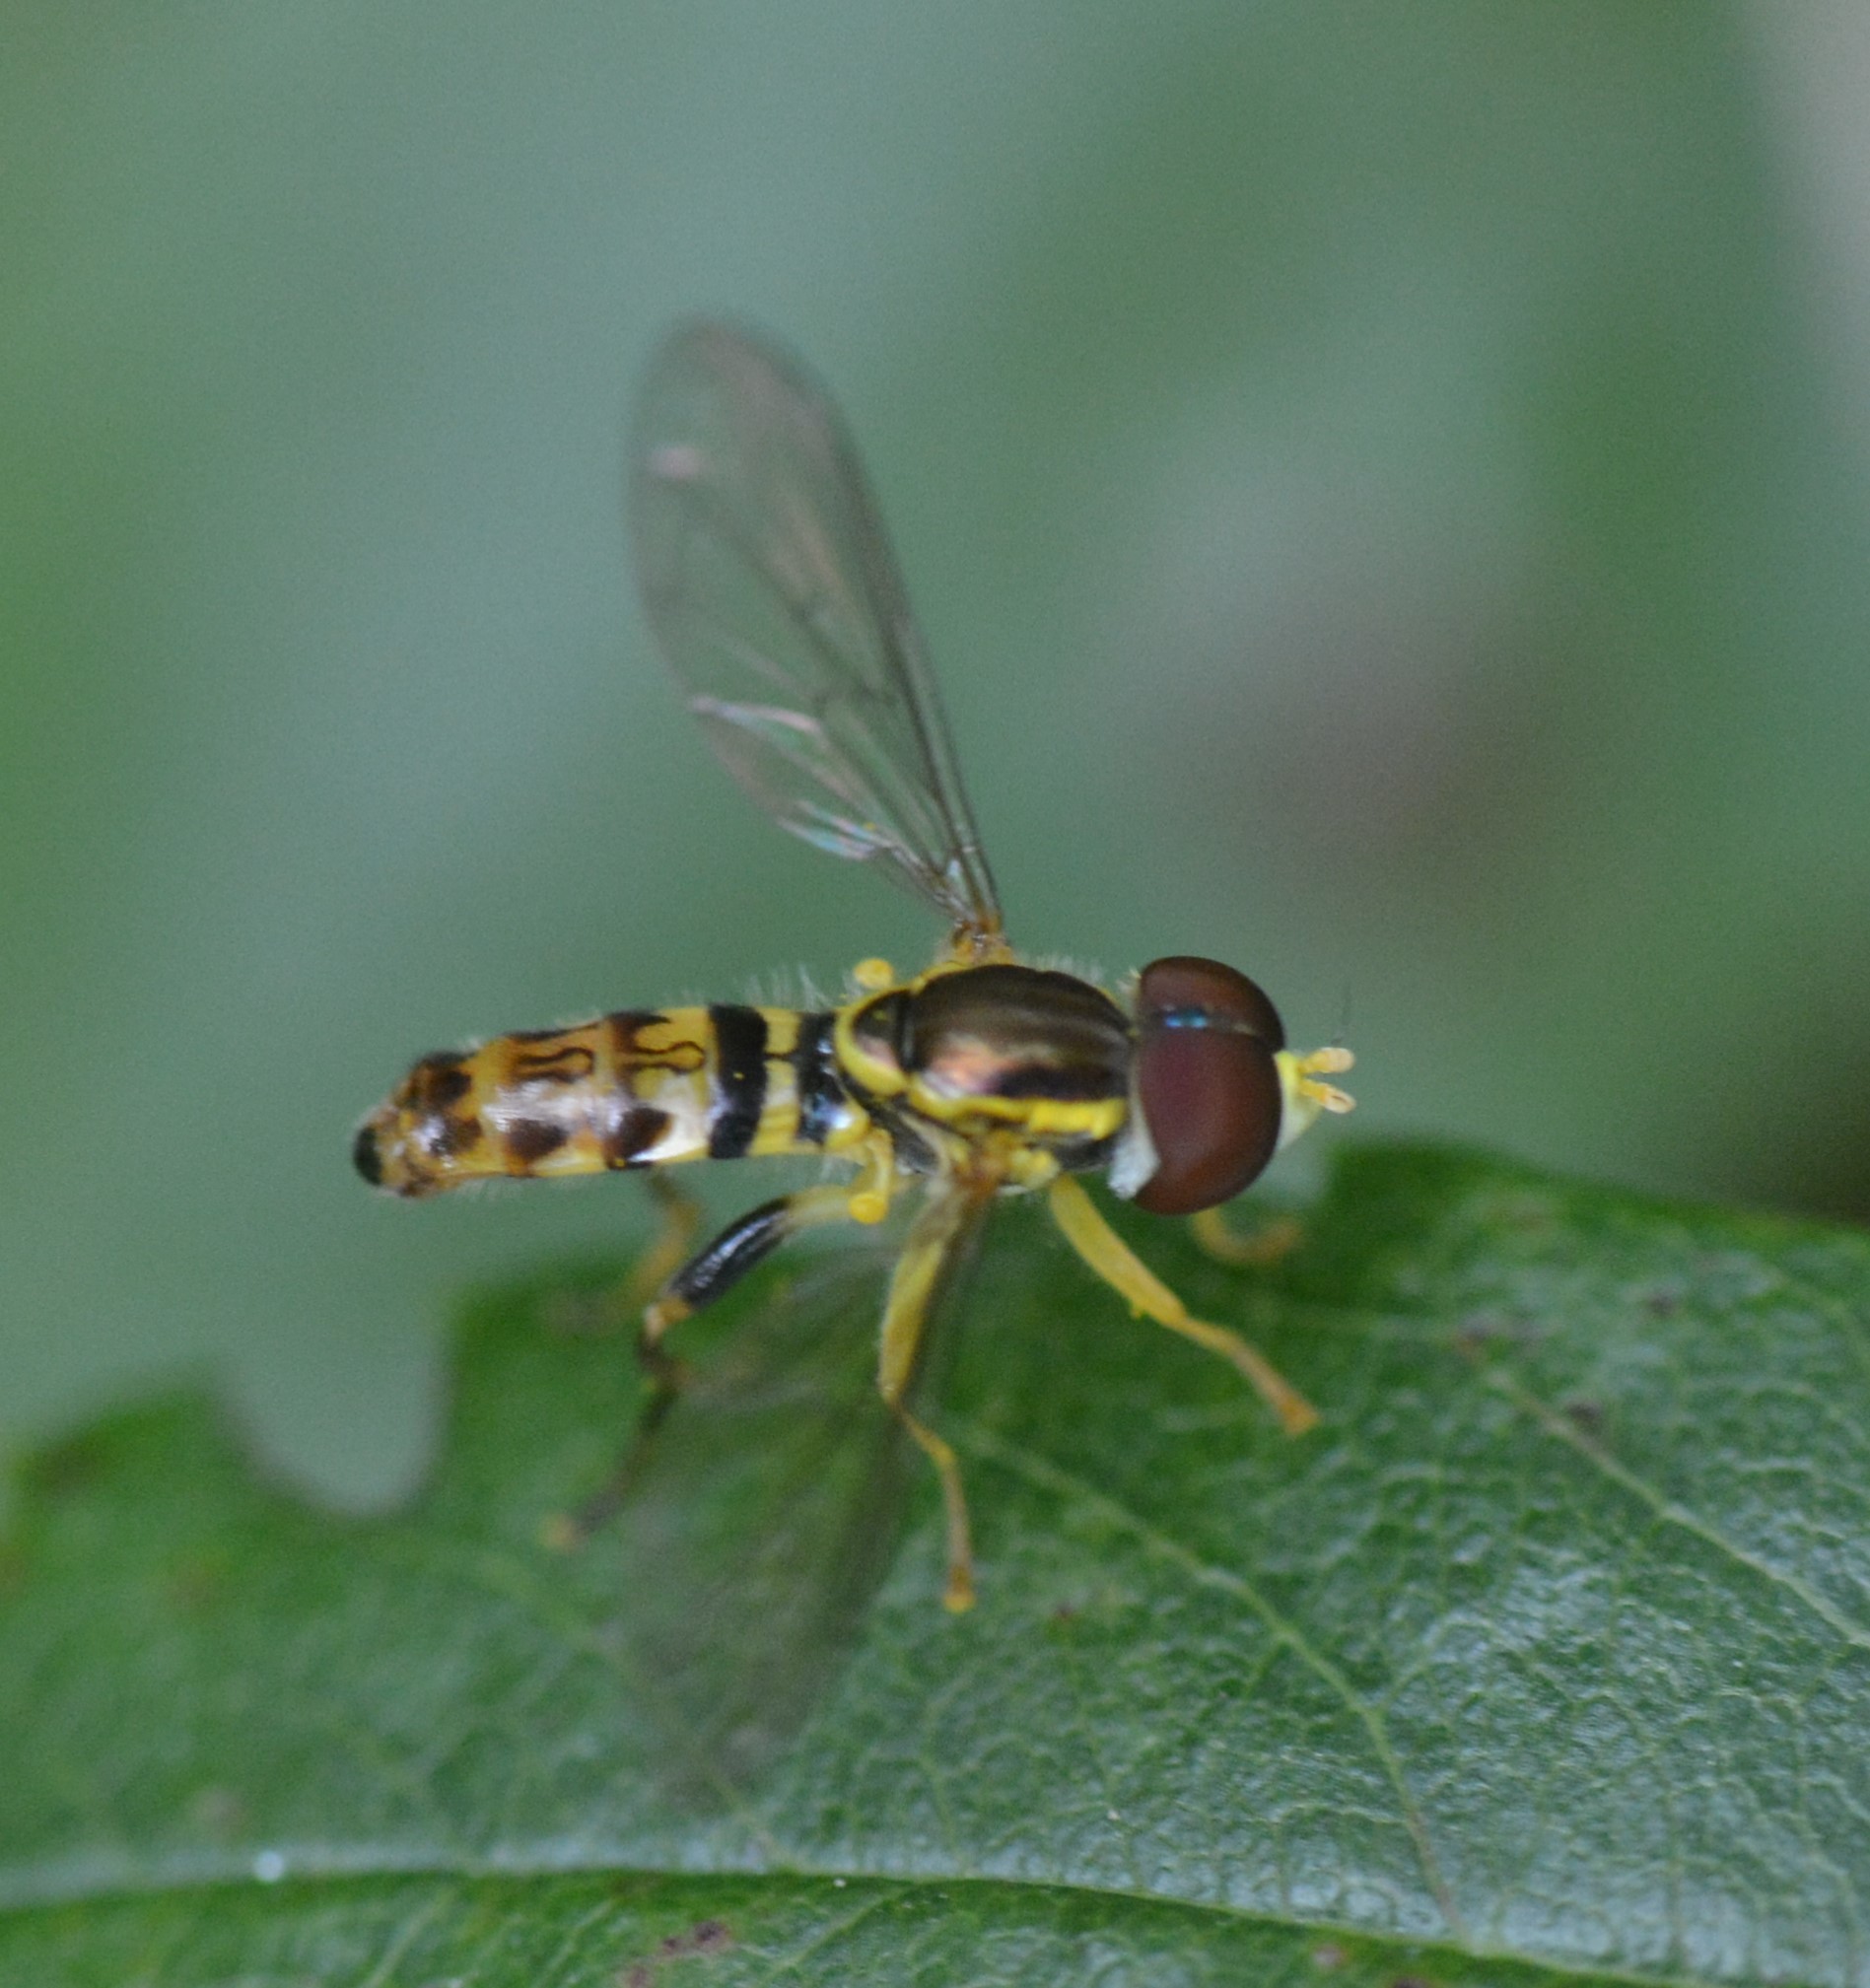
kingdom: Animalia
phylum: Arthropoda
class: Insecta
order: Diptera
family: Syrphidae
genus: Toxomerus
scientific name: Toxomerus geminatus
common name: Eastern calligrapher
